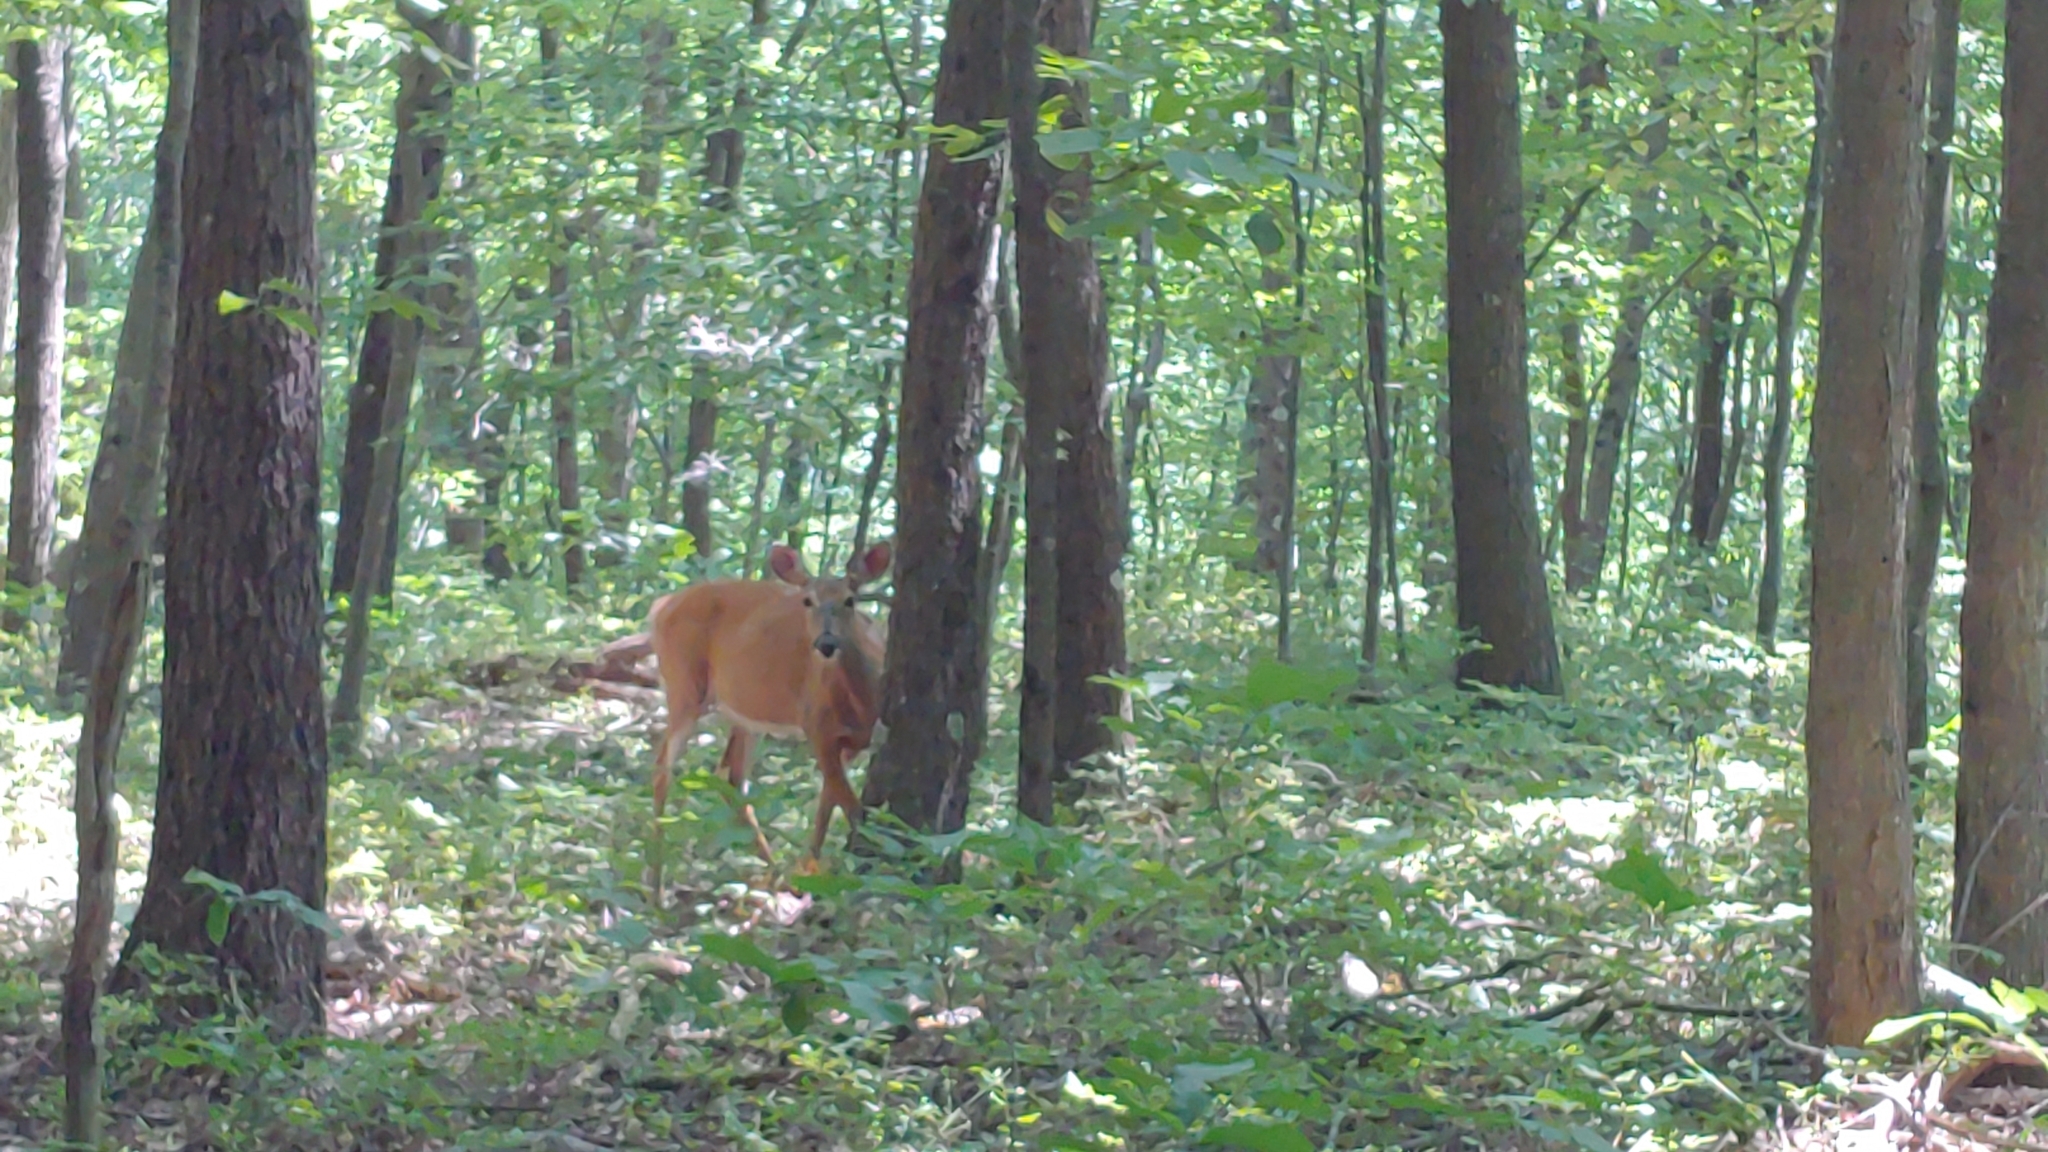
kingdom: Animalia
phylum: Chordata
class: Mammalia
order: Artiodactyla
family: Cervidae
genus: Odocoileus
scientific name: Odocoileus virginianus
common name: White-tailed deer
